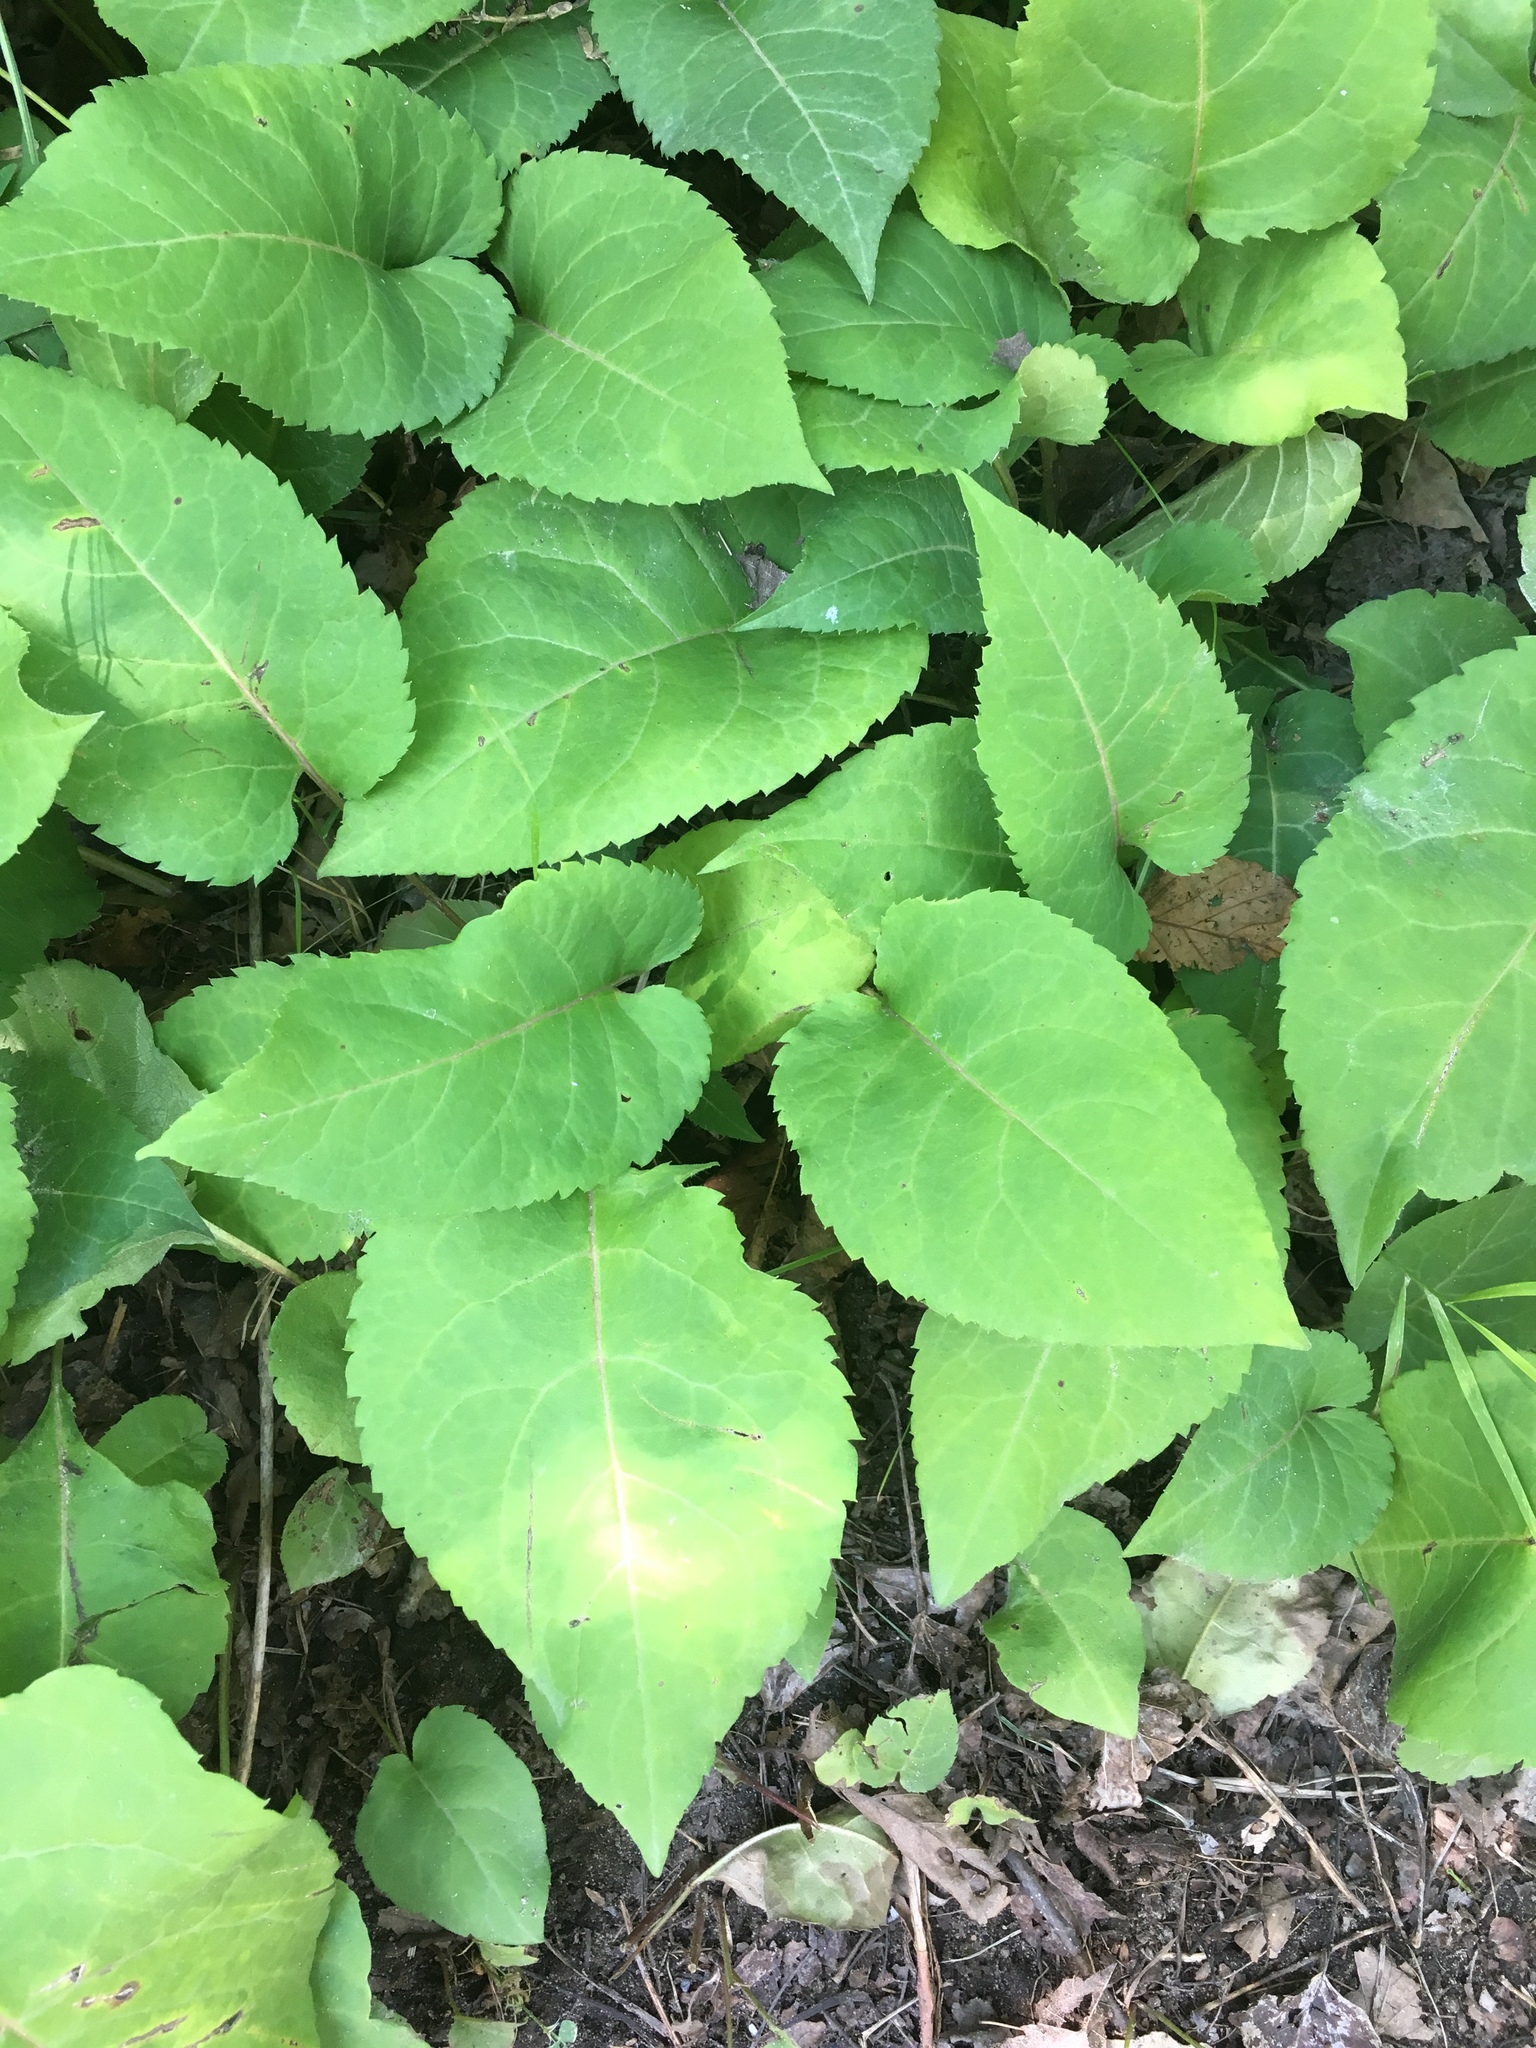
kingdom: Plantae
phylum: Tracheophyta
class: Magnoliopsida
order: Asterales
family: Asteraceae
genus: Eurybia
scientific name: Eurybia macrophylla
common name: Big-leaved aster
